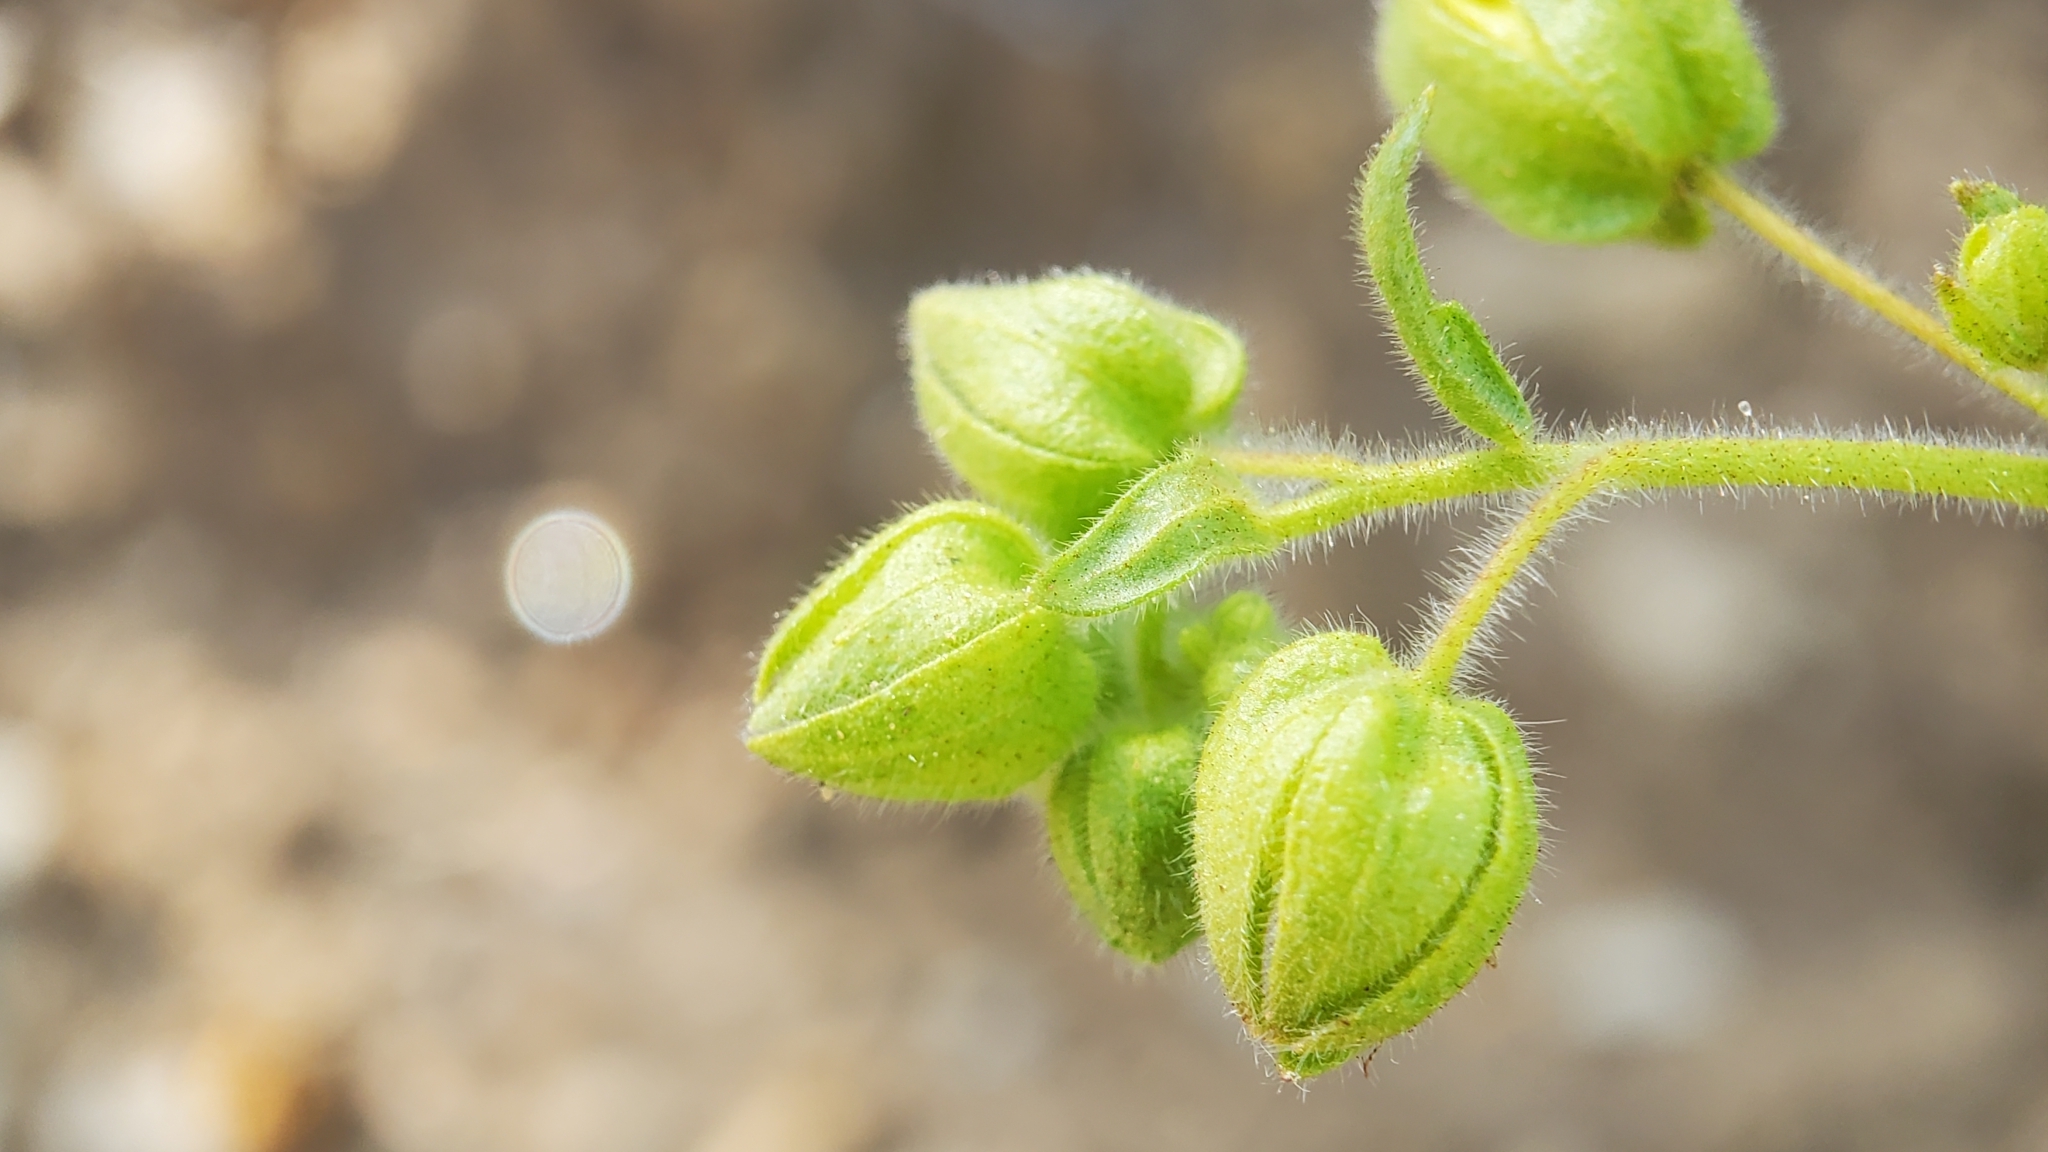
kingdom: Plantae
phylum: Tracheophyta
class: Magnoliopsida
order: Boraginales
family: Hydrophyllaceae
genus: Emmenanthe
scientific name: Emmenanthe penduliflora
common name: Whispering-bells
